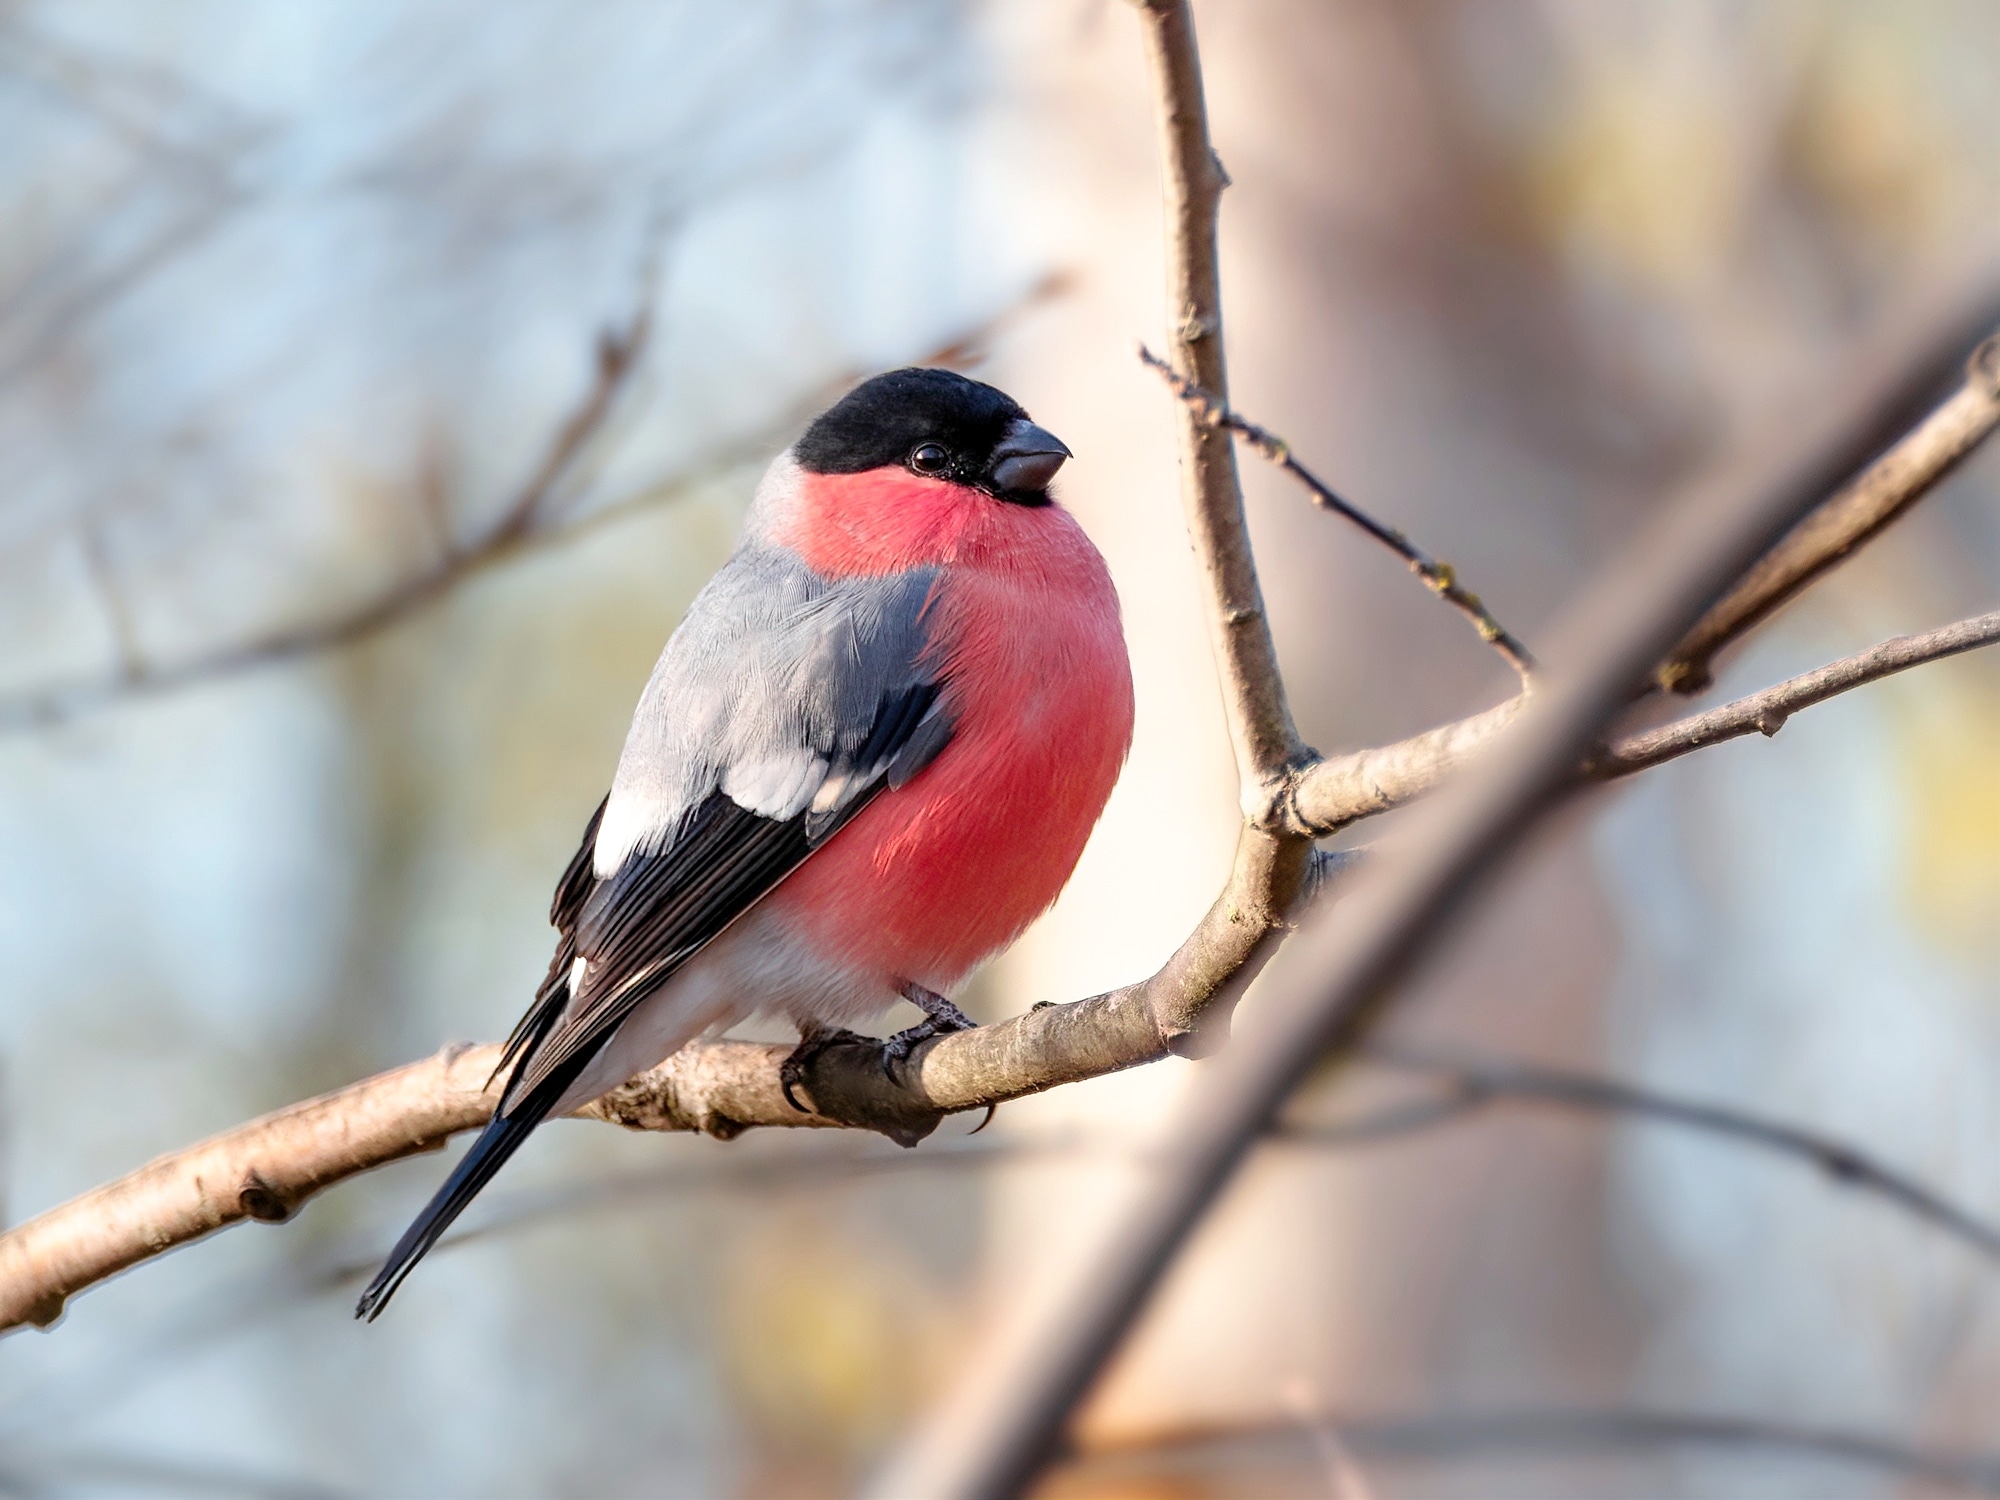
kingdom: Animalia
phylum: Chordata
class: Aves
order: Passeriformes
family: Fringillidae
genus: Pyrrhula
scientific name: Pyrrhula pyrrhula
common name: Eurasian bullfinch
